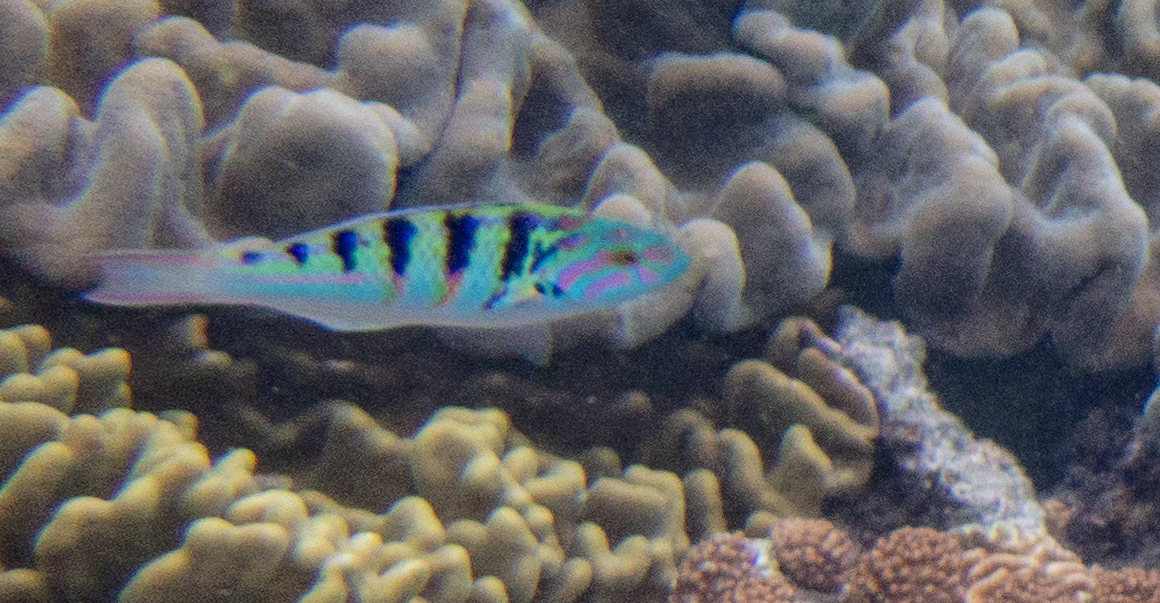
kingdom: Animalia
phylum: Chordata
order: Perciformes
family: Labridae
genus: Thalassoma
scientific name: Thalassoma hardwicke
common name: Sixbar wrasse
